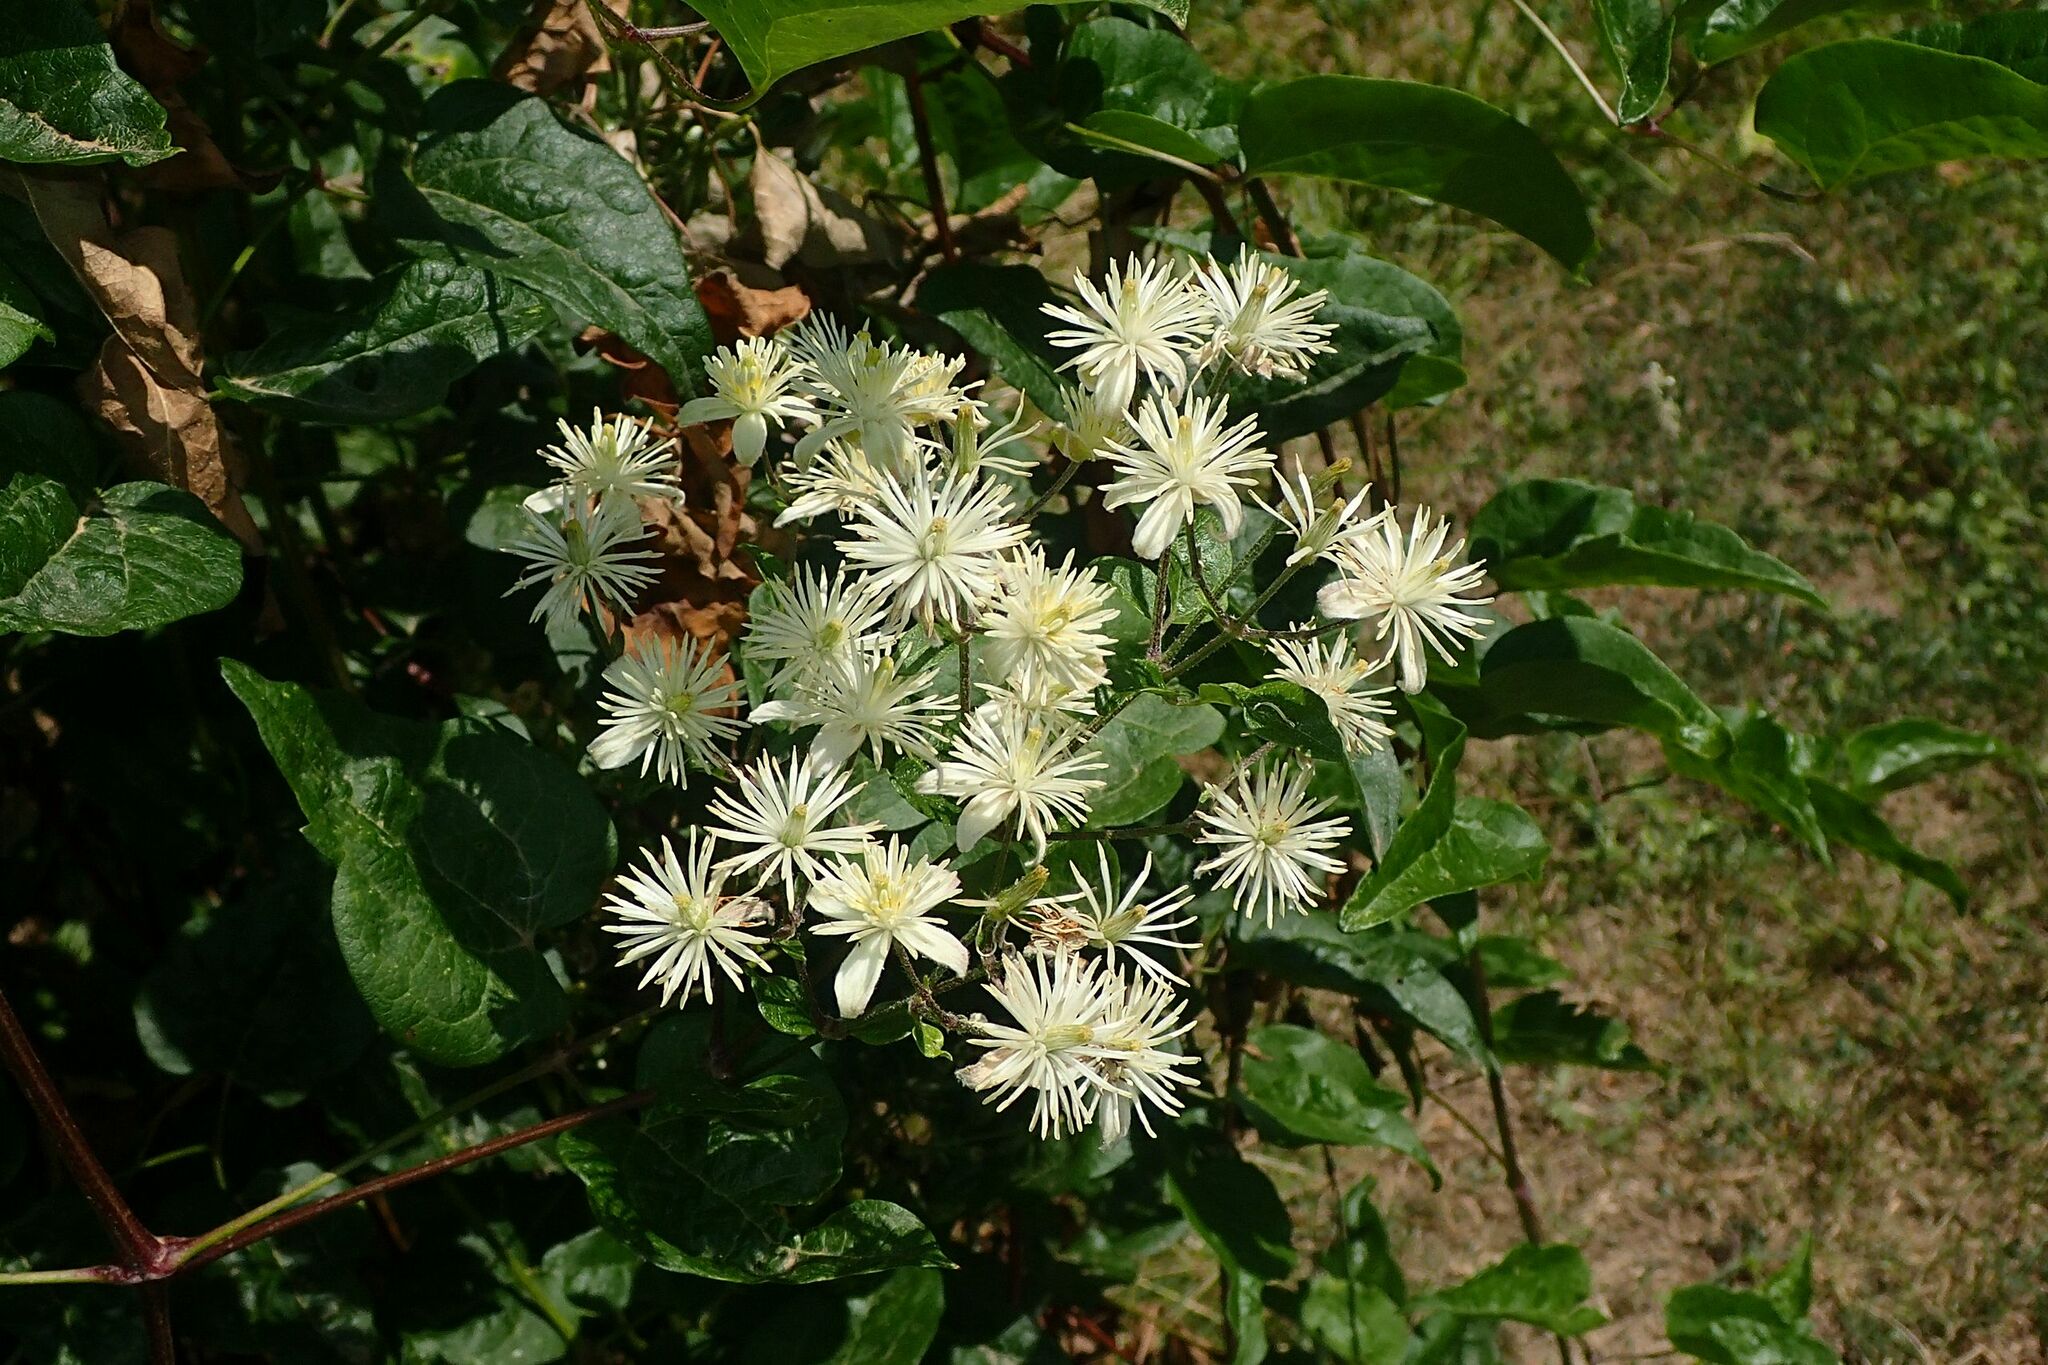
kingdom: Plantae
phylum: Tracheophyta
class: Magnoliopsida
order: Ranunculales
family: Ranunculaceae
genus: Clematis
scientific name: Clematis vitalba
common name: Evergreen clematis
